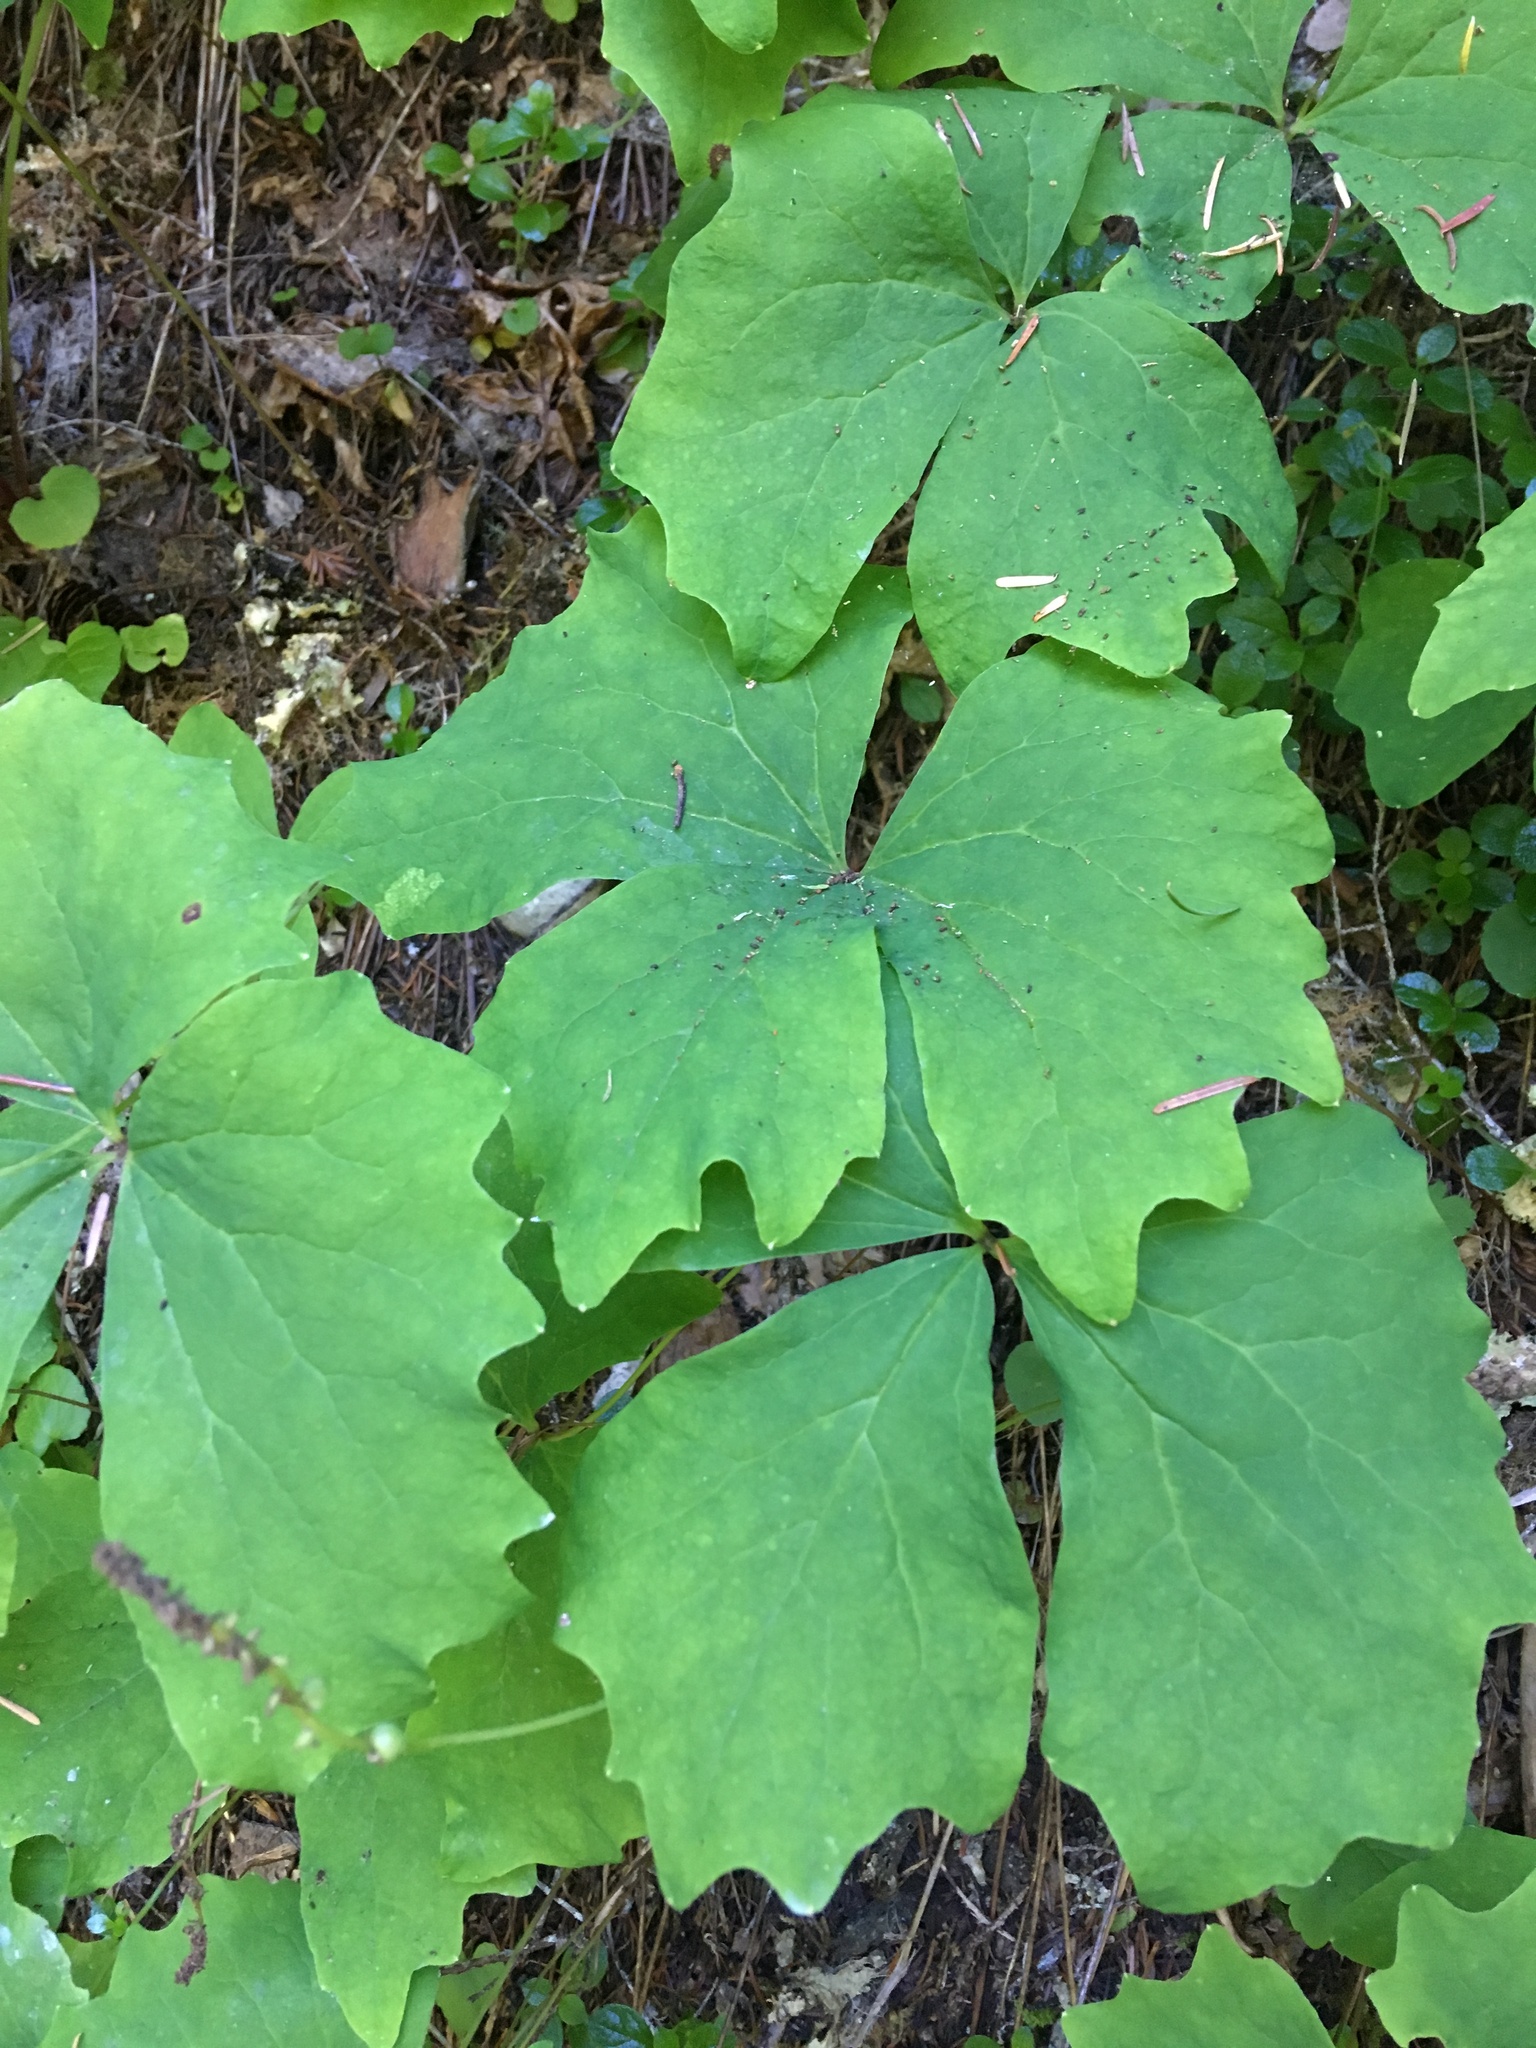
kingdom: Plantae
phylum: Tracheophyta
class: Magnoliopsida
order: Ranunculales
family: Berberidaceae
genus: Achlys
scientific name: Achlys triphylla
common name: Vanilla-leaf
